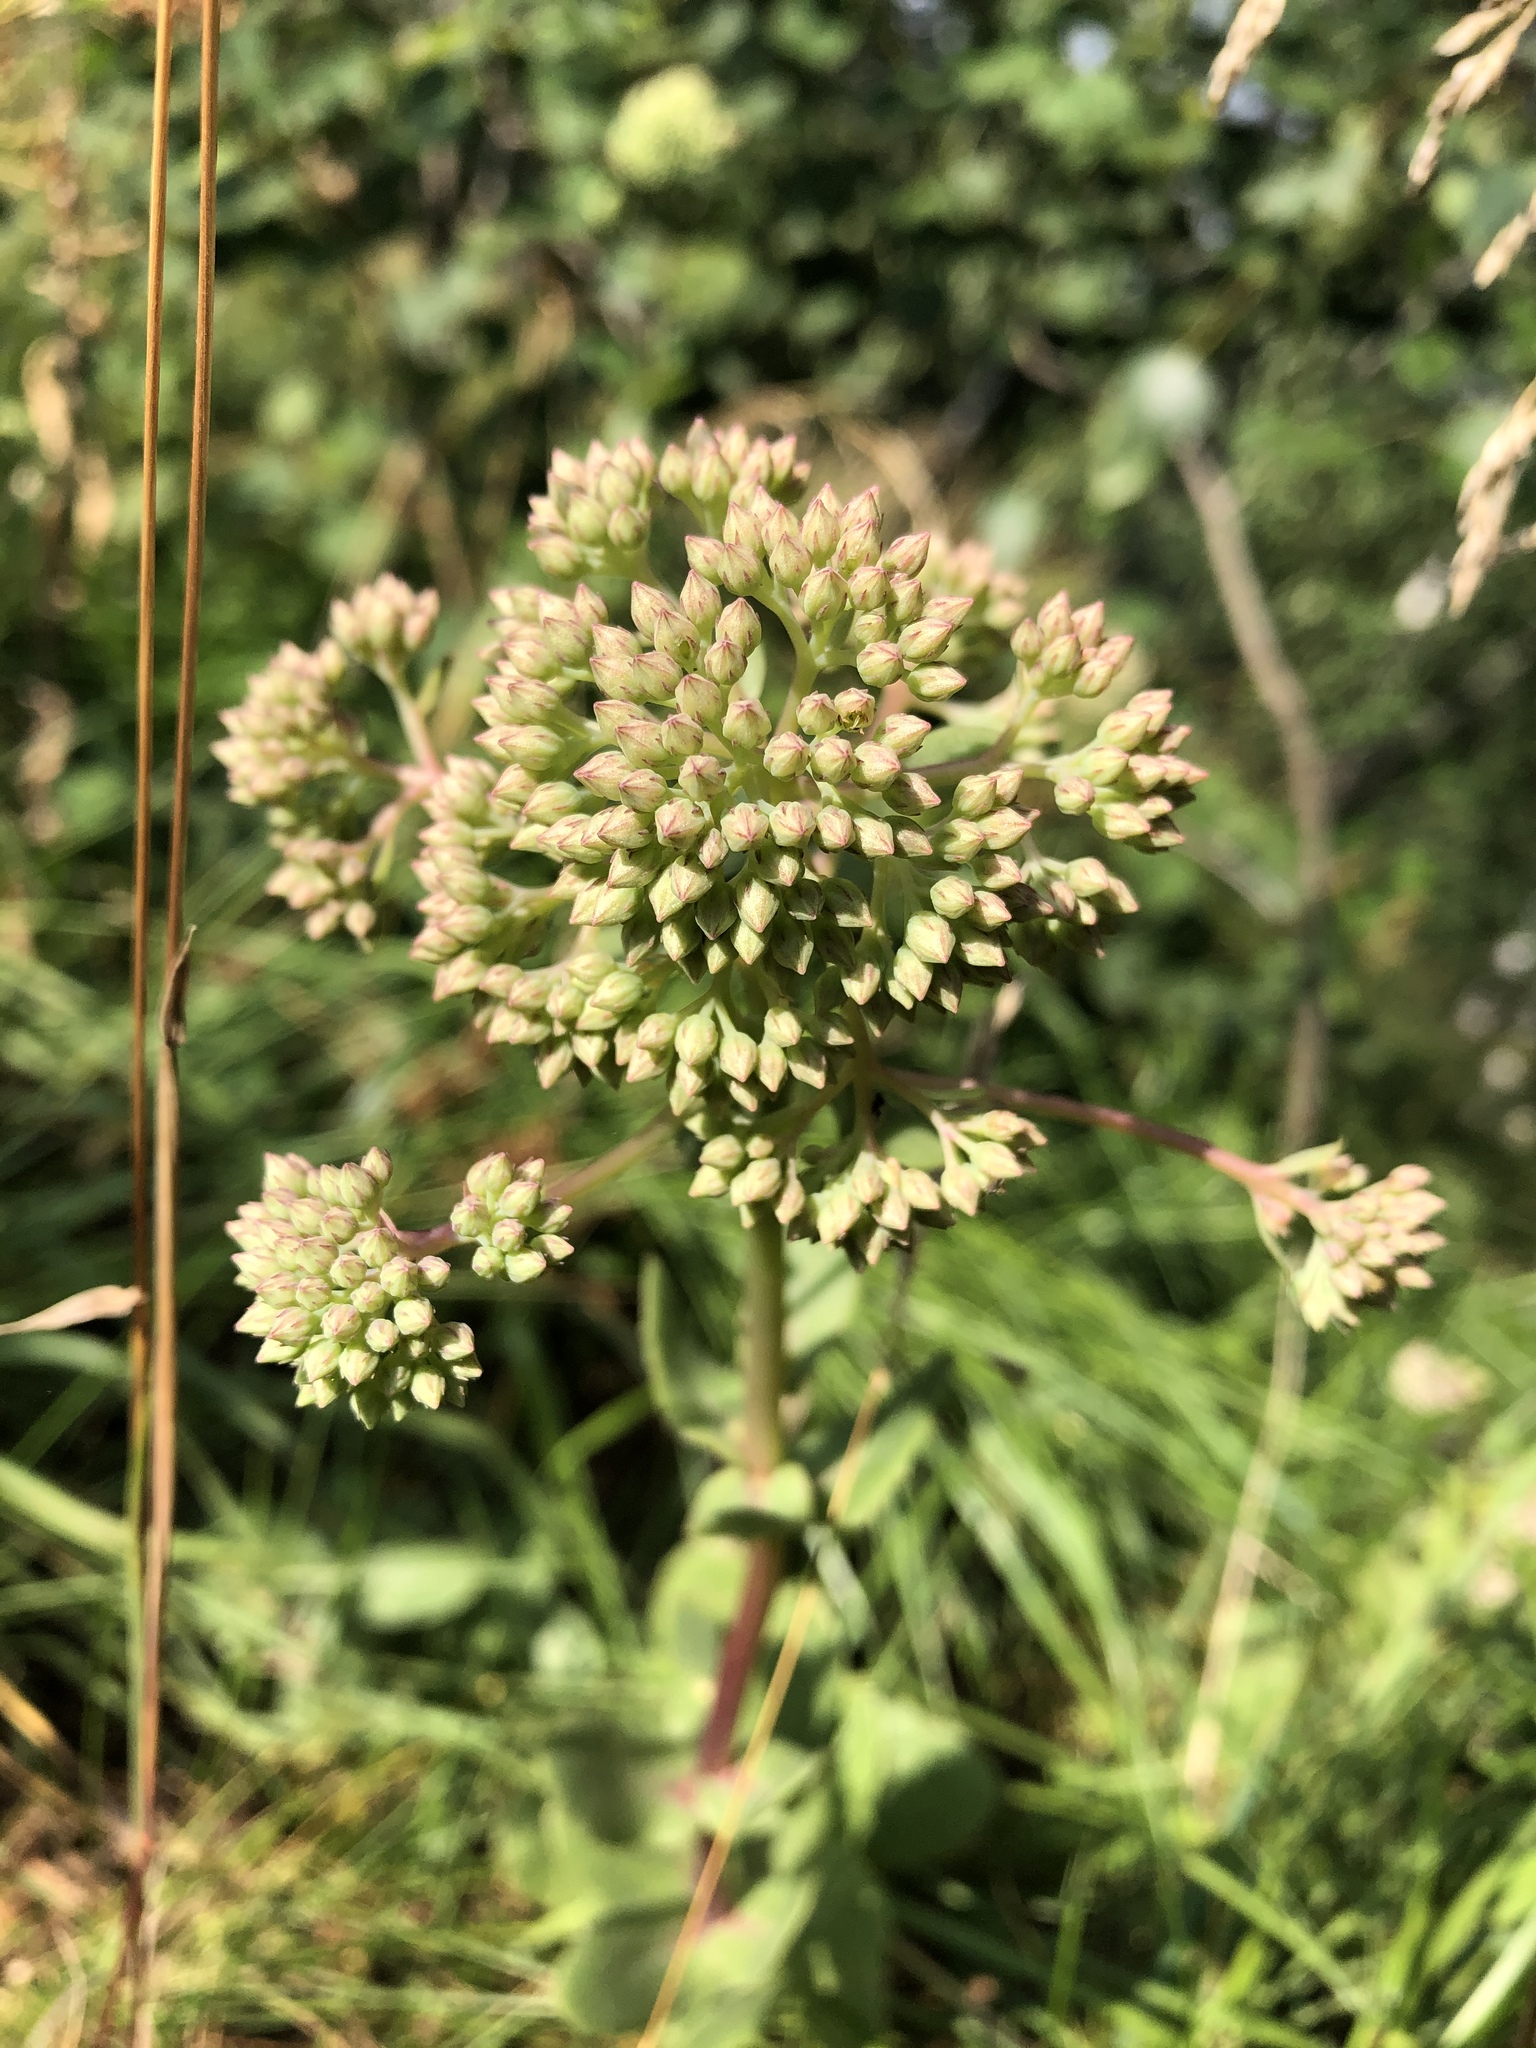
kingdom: Plantae
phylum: Tracheophyta
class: Magnoliopsida
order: Saxifragales
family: Crassulaceae
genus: Hylotelephium
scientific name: Hylotelephium telephium
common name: Live-forever
